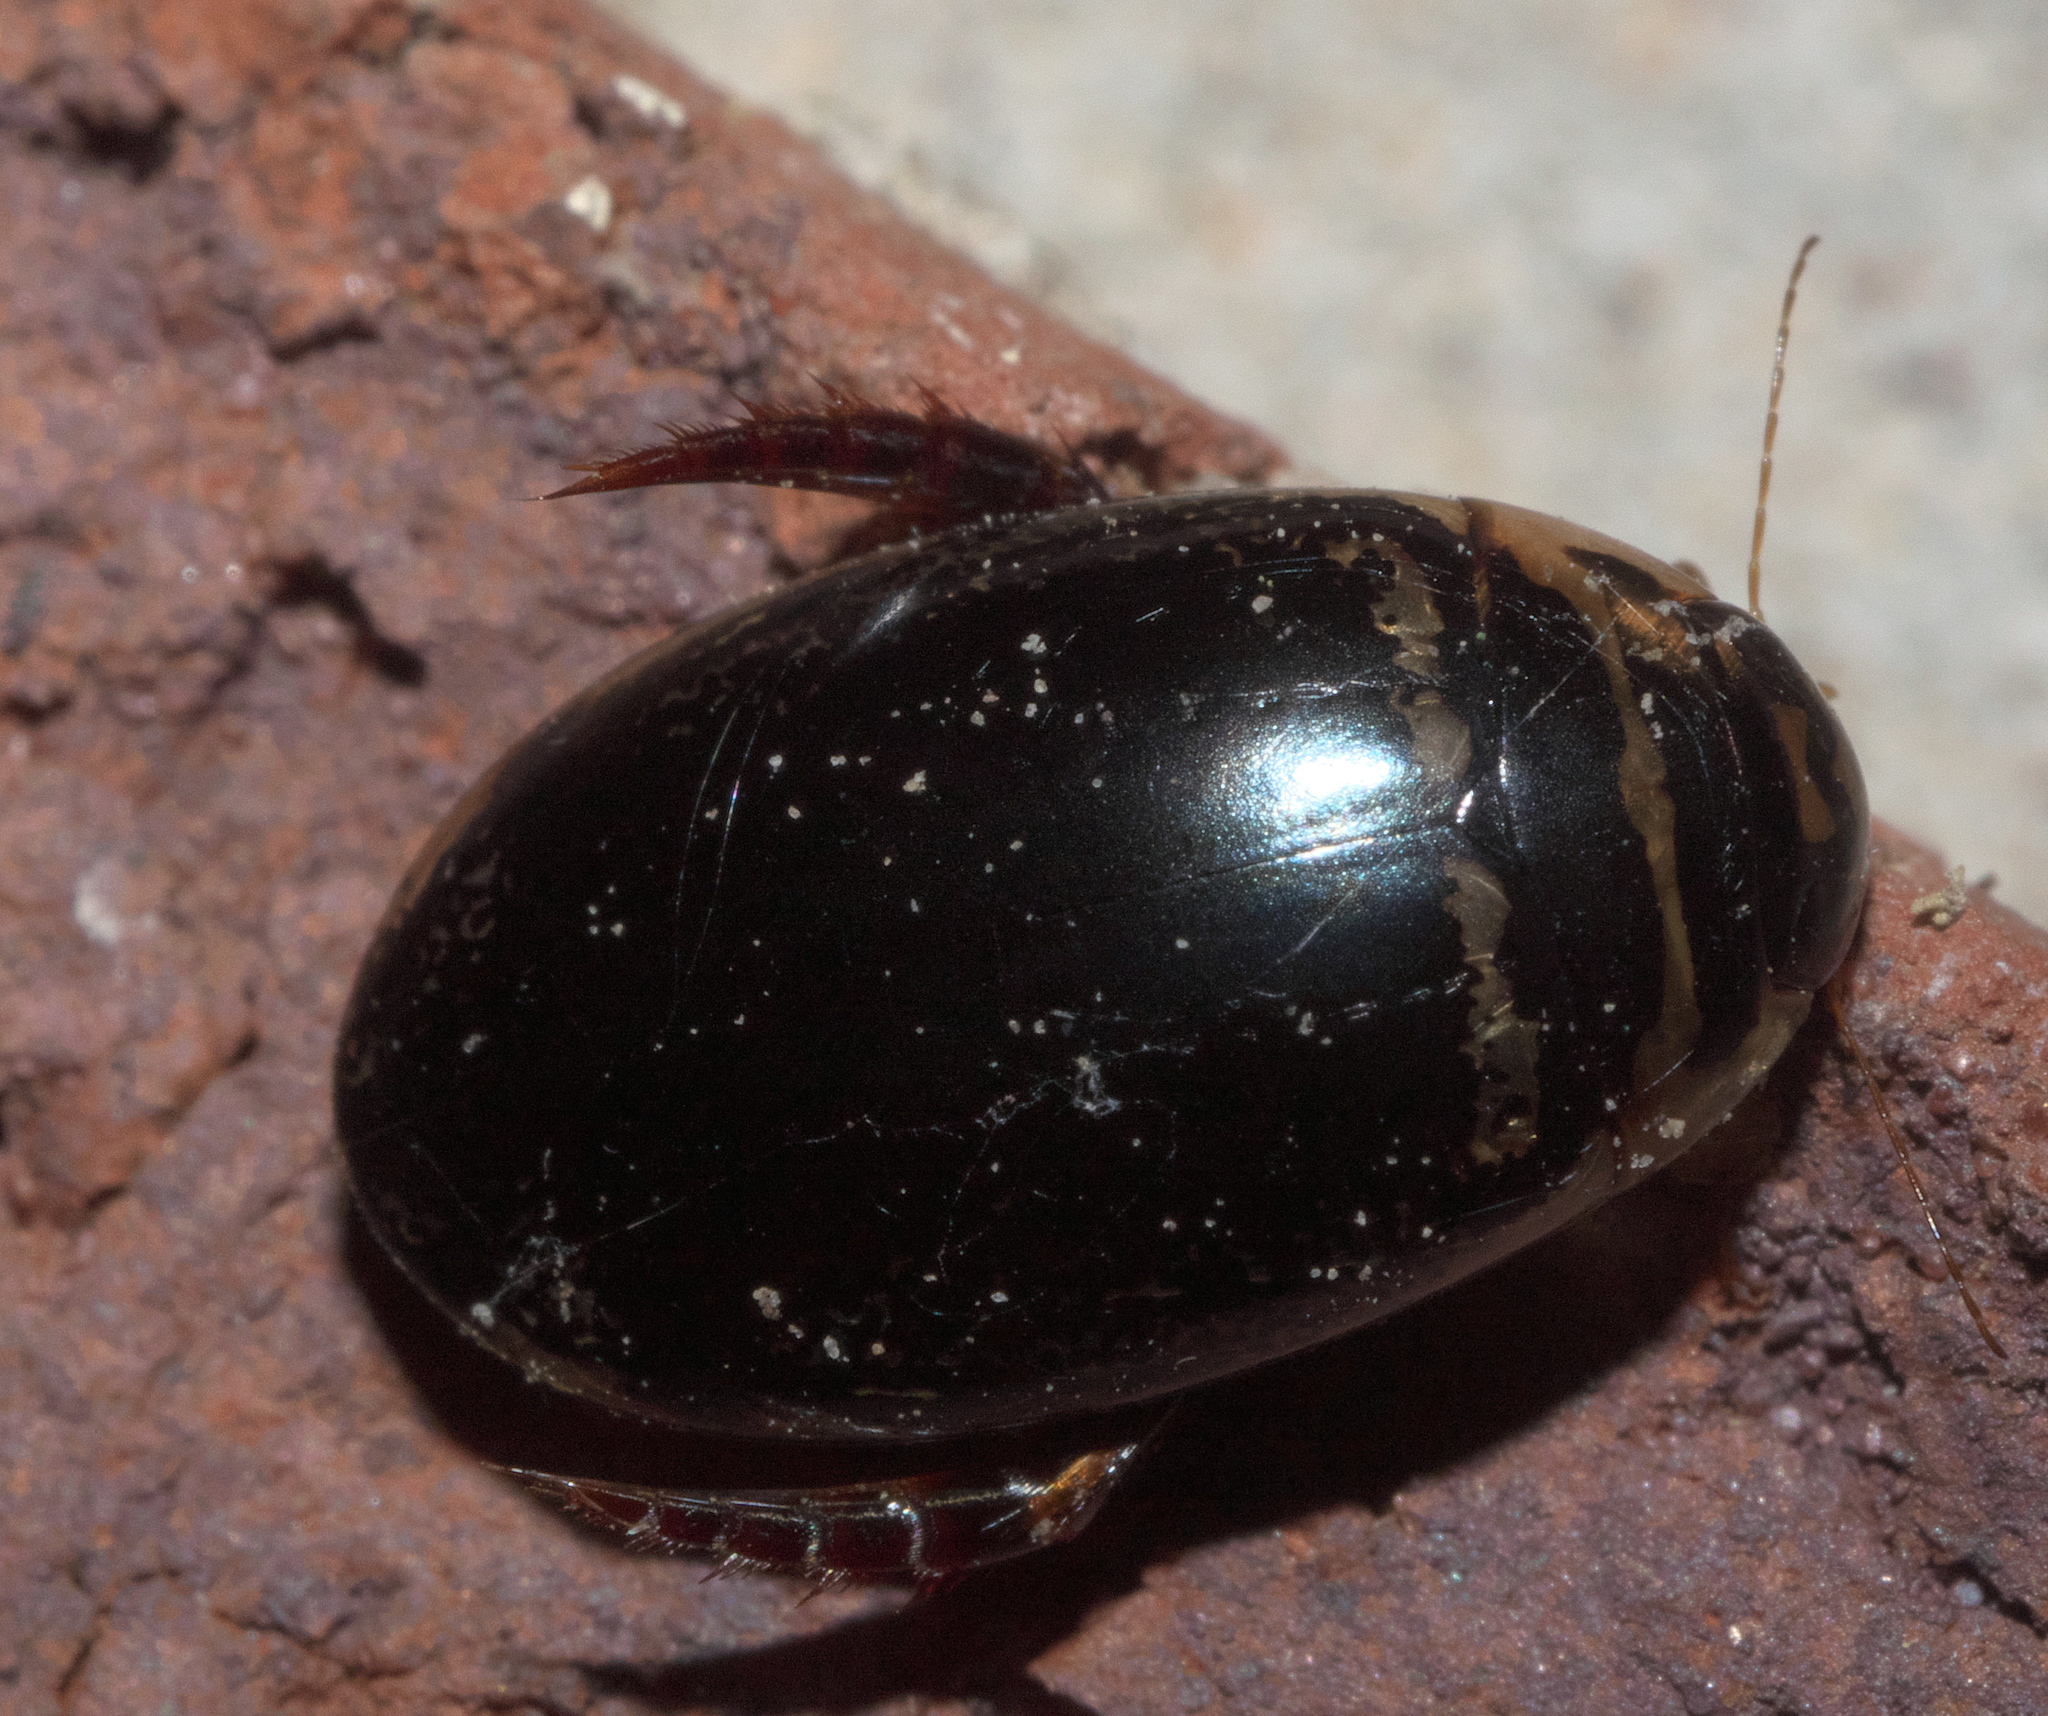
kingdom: Animalia
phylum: Arthropoda
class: Insecta
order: Coleoptera
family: Dytiscidae
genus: Thermonectus
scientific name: Thermonectus basillaris
